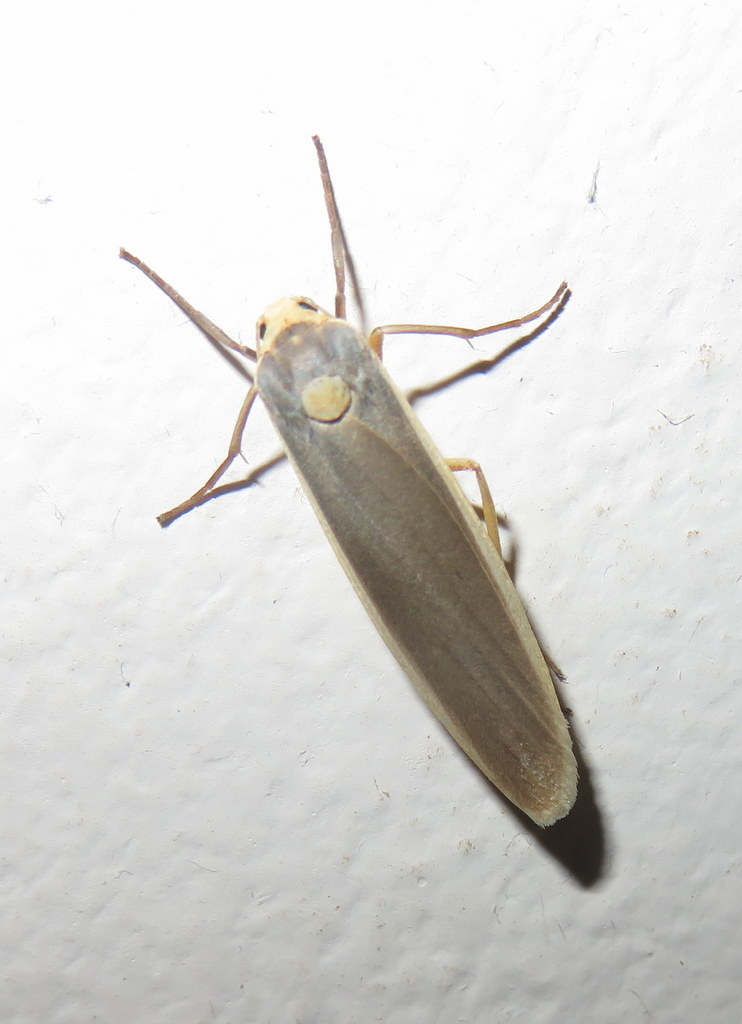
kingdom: Animalia
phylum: Arthropoda
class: Insecta
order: Lepidoptera
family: Erebidae
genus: Sozusa
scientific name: Sozusa scutellata
